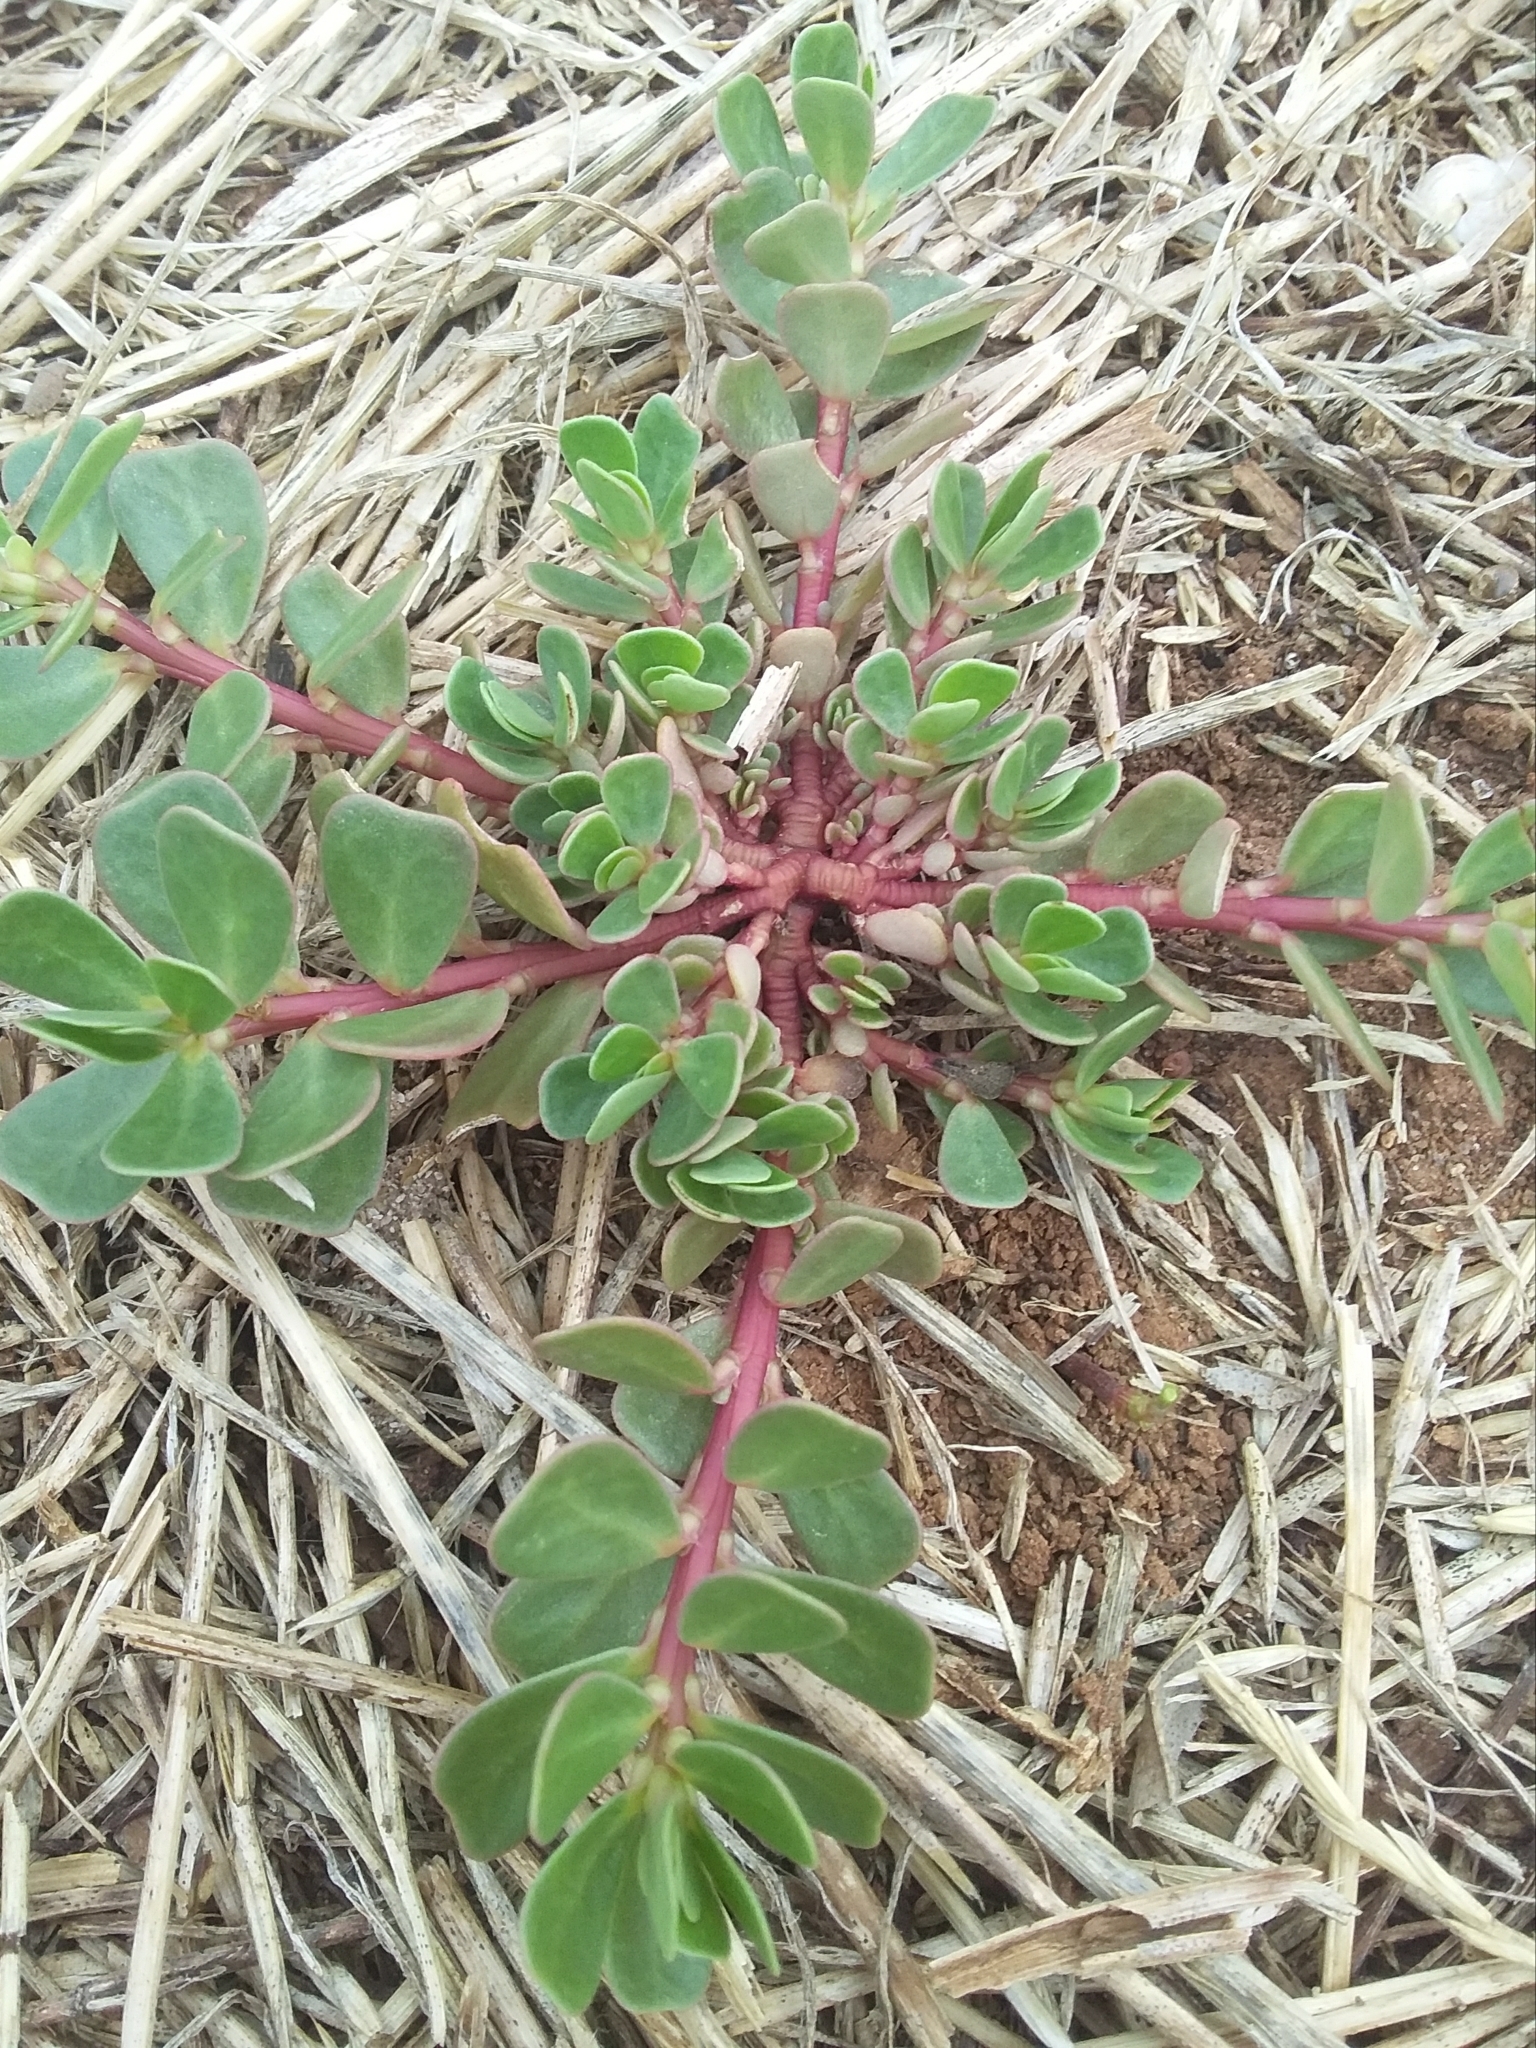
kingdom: Plantae
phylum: Tracheophyta
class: Magnoliopsida
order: Caryophyllales
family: Portulacaceae
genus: Portulaca
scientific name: Portulaca oleracea
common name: Common purslane
